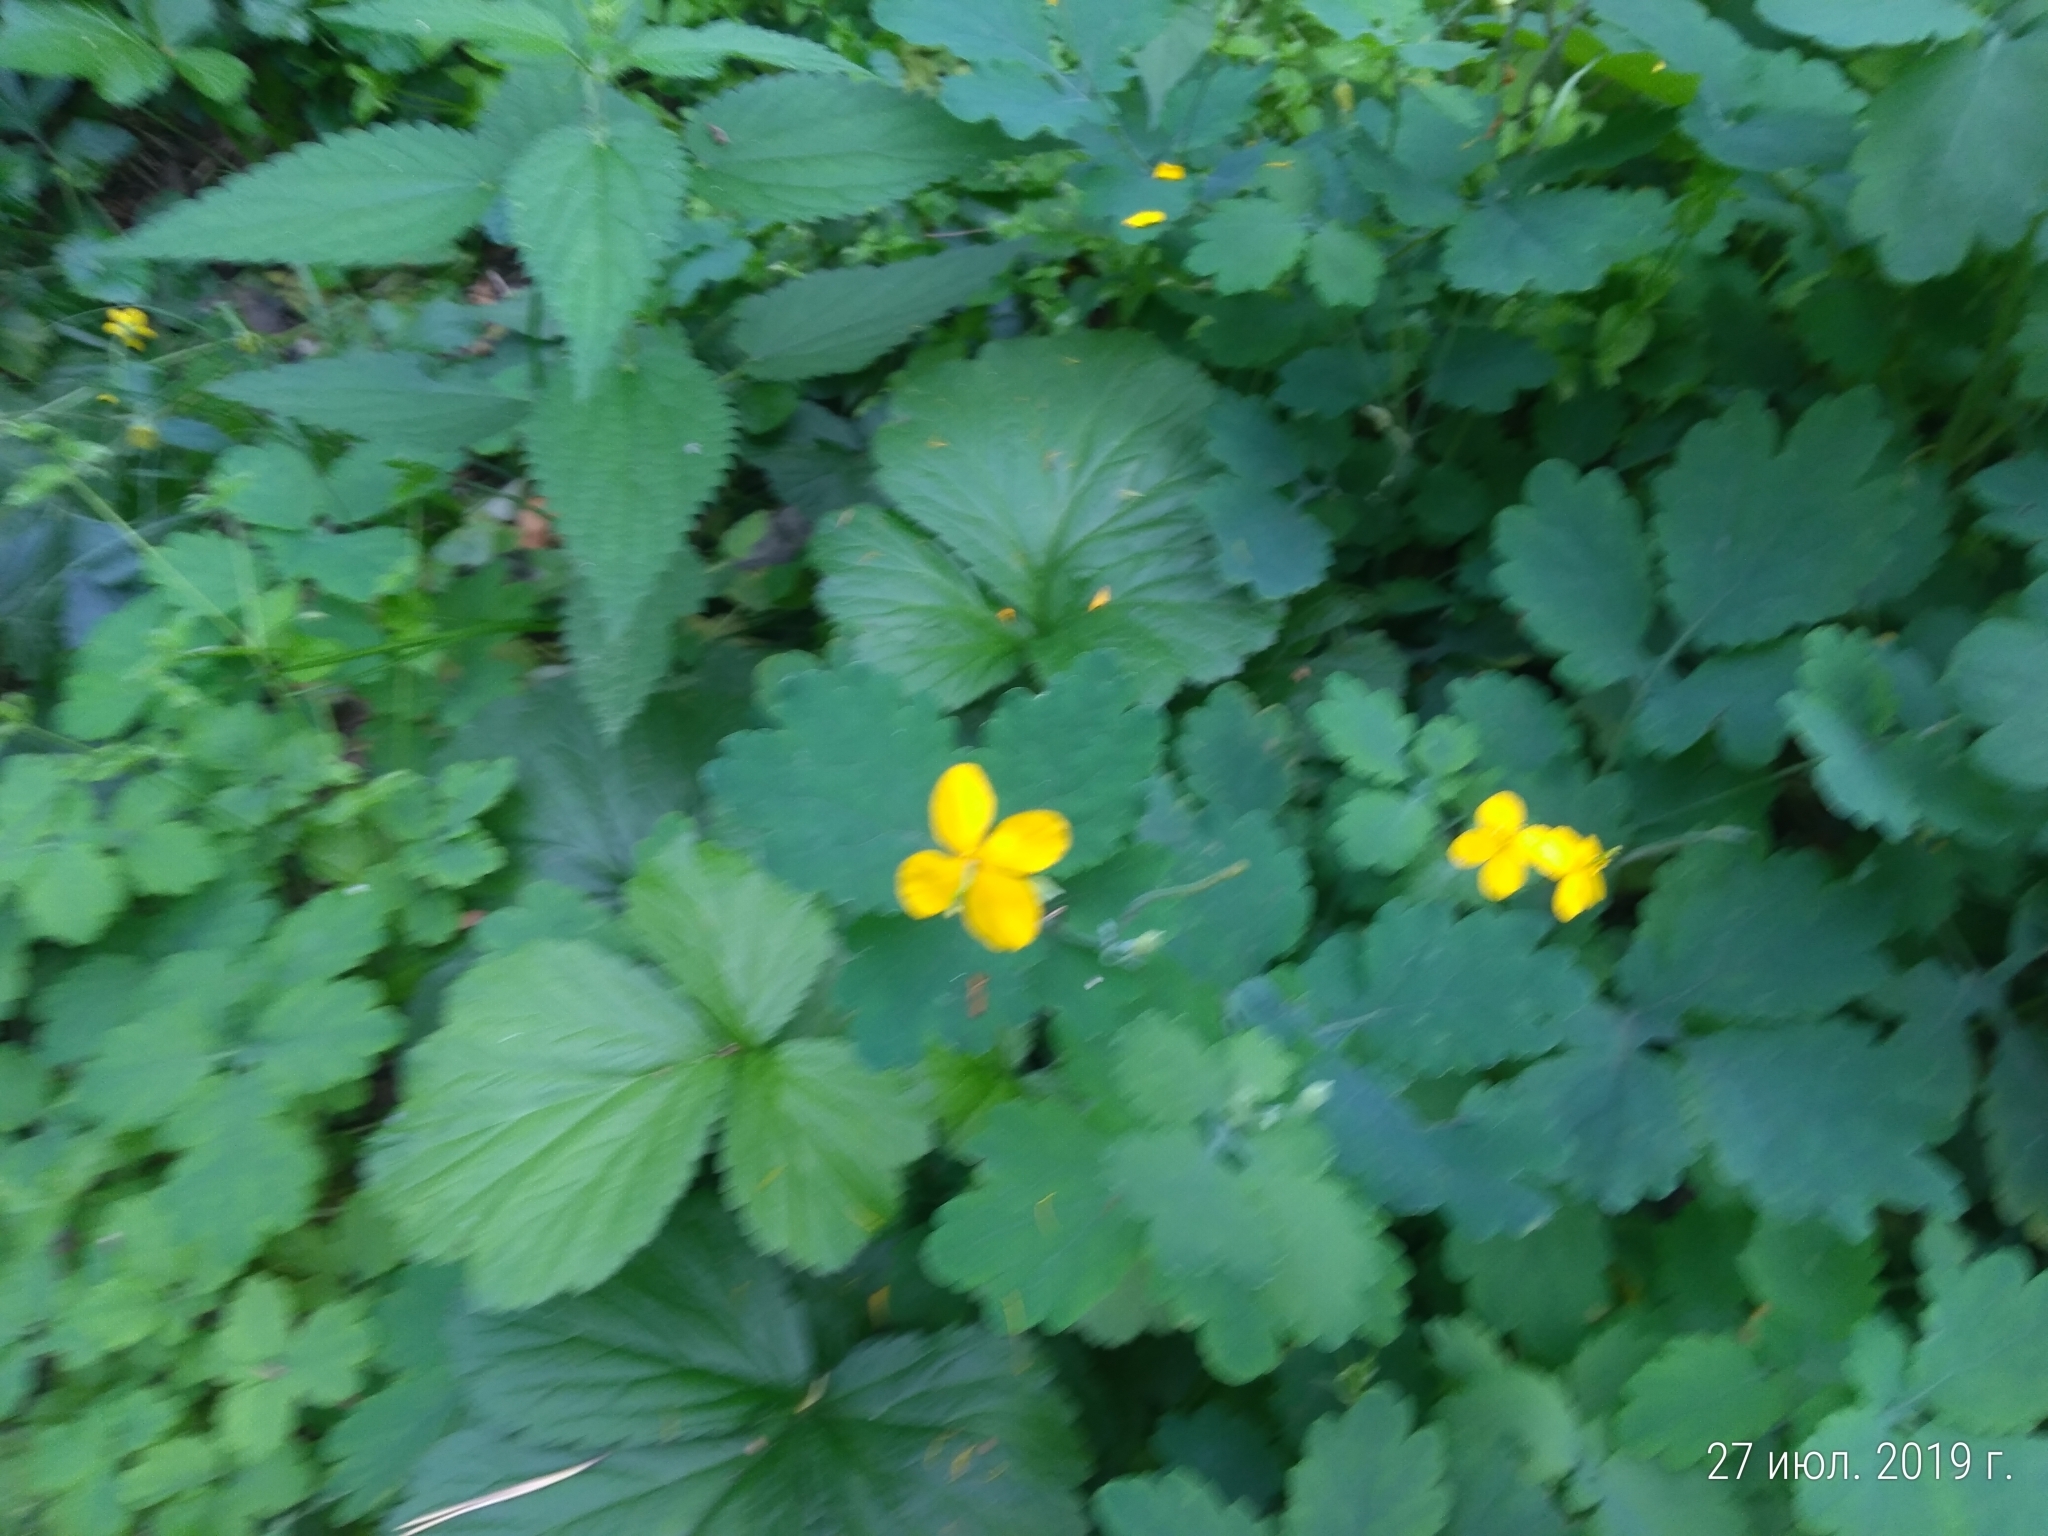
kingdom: Plantae
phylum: Tracheophyta
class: Magnoliopsida
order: Ranunculales
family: Papaveraceae
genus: Chelidonium
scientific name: Chelidonium majus
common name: Greater celandine
